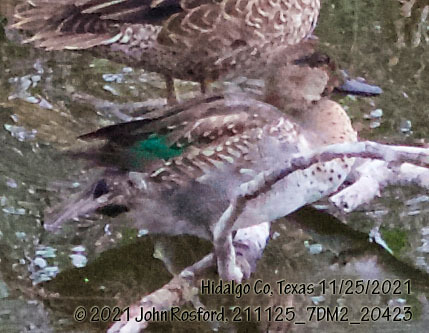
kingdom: Animalia
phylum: Chordata
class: Aves
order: Anseriformes
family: Anatidae
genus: Anas
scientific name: Anas carolinensis
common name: Green-winged teal
